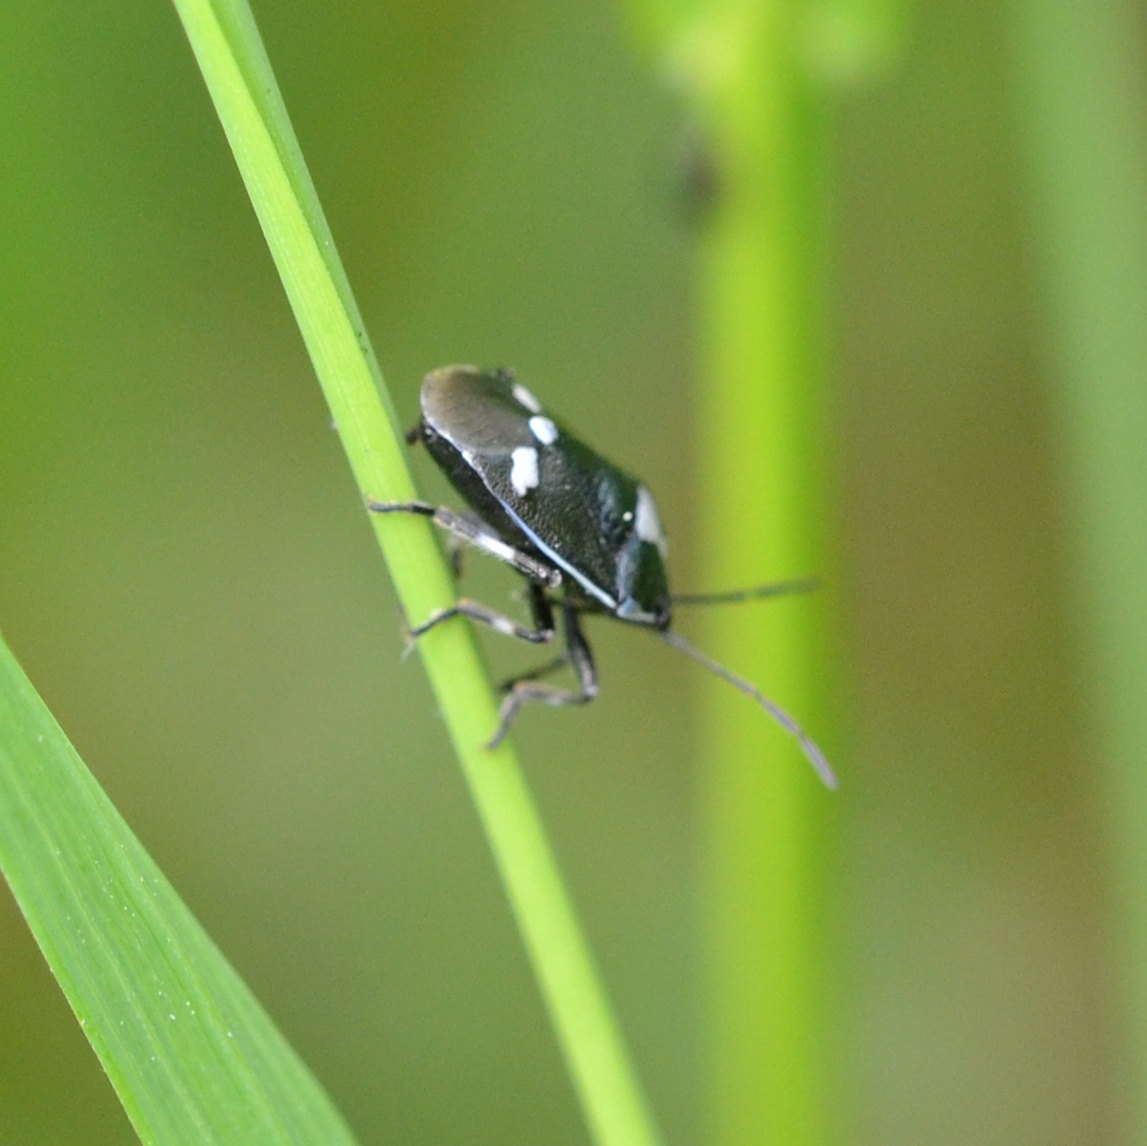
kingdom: Animalia
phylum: Arthropoda
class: Insecta
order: Hemiptera
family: Pentatomidae
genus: Eurydema
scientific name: Eurydema oleracea
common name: Cabbage bug
